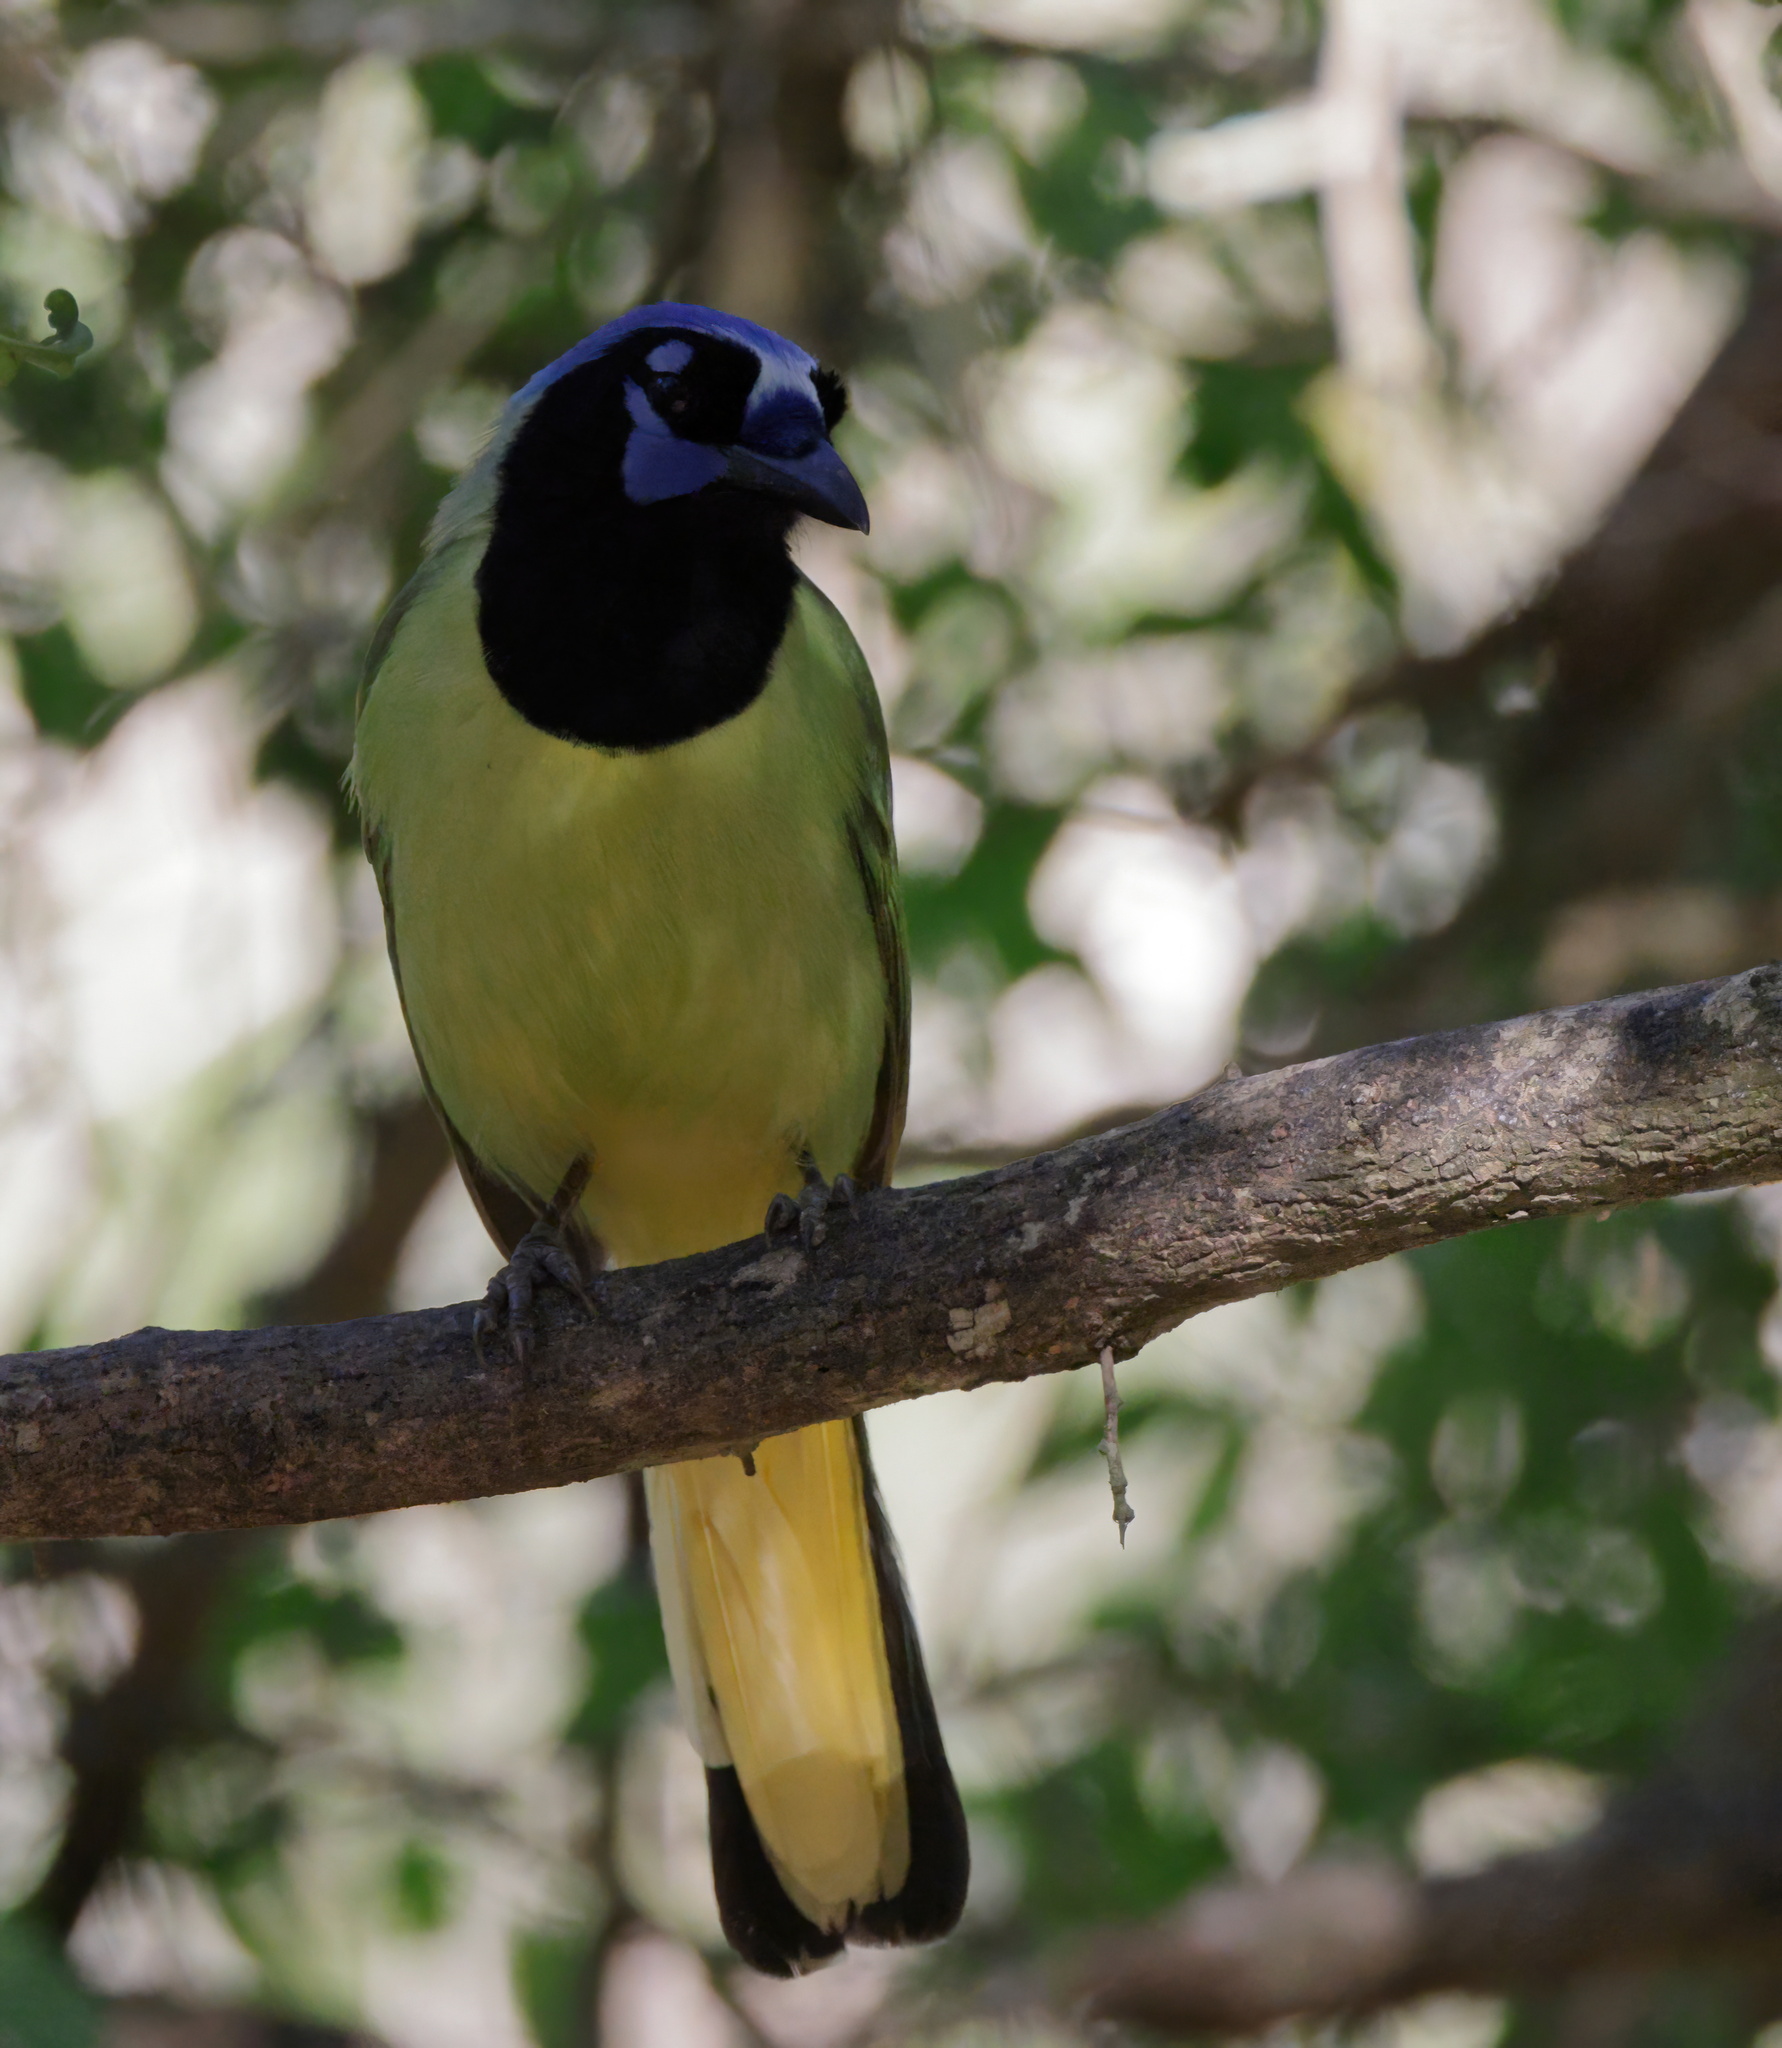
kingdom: Animalia
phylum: Chordata
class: Aves
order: Passeriformes
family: Corvidae
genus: Cyanocorax
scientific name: Cyanocorax yncas
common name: Green jay
